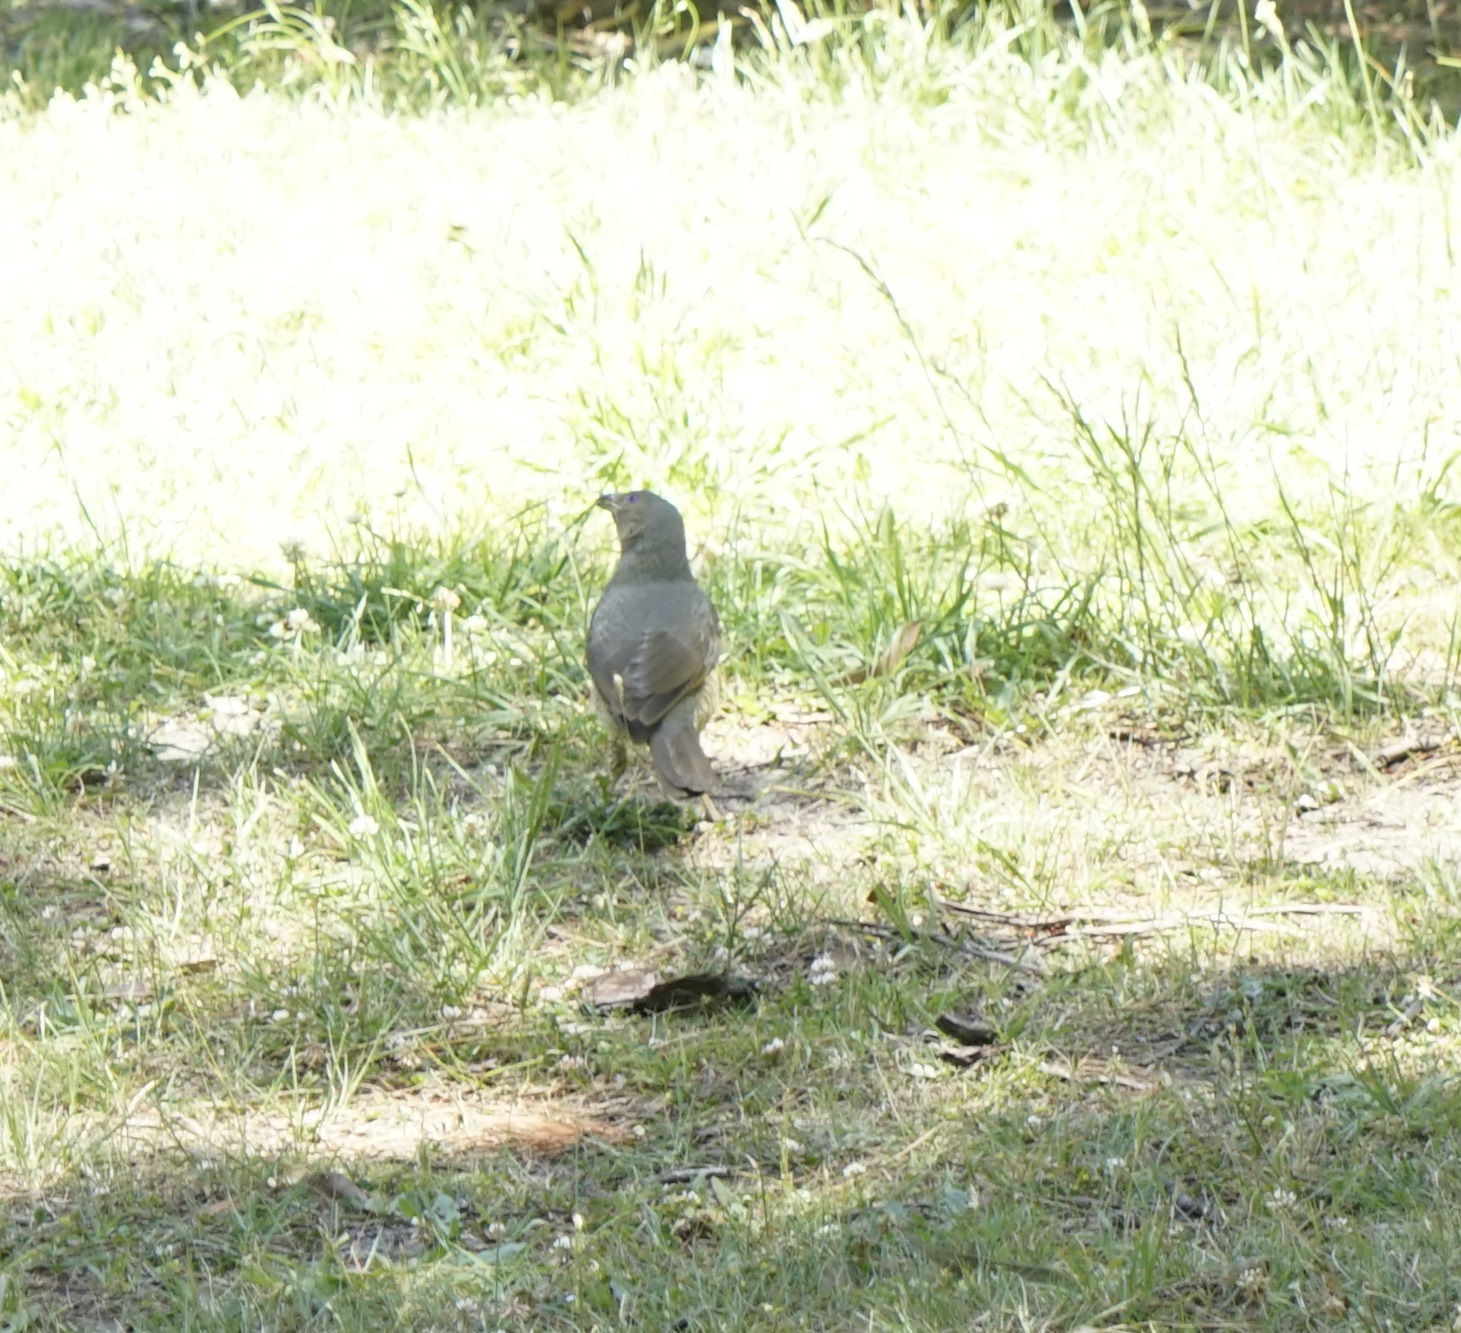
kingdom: Animalia
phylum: Chordata
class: Aves
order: Passeriformes
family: Ptilonorhynchidae
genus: Ptilonorhynchus
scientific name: Ptilonorhynchus violaceus
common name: Satin bowerbird
